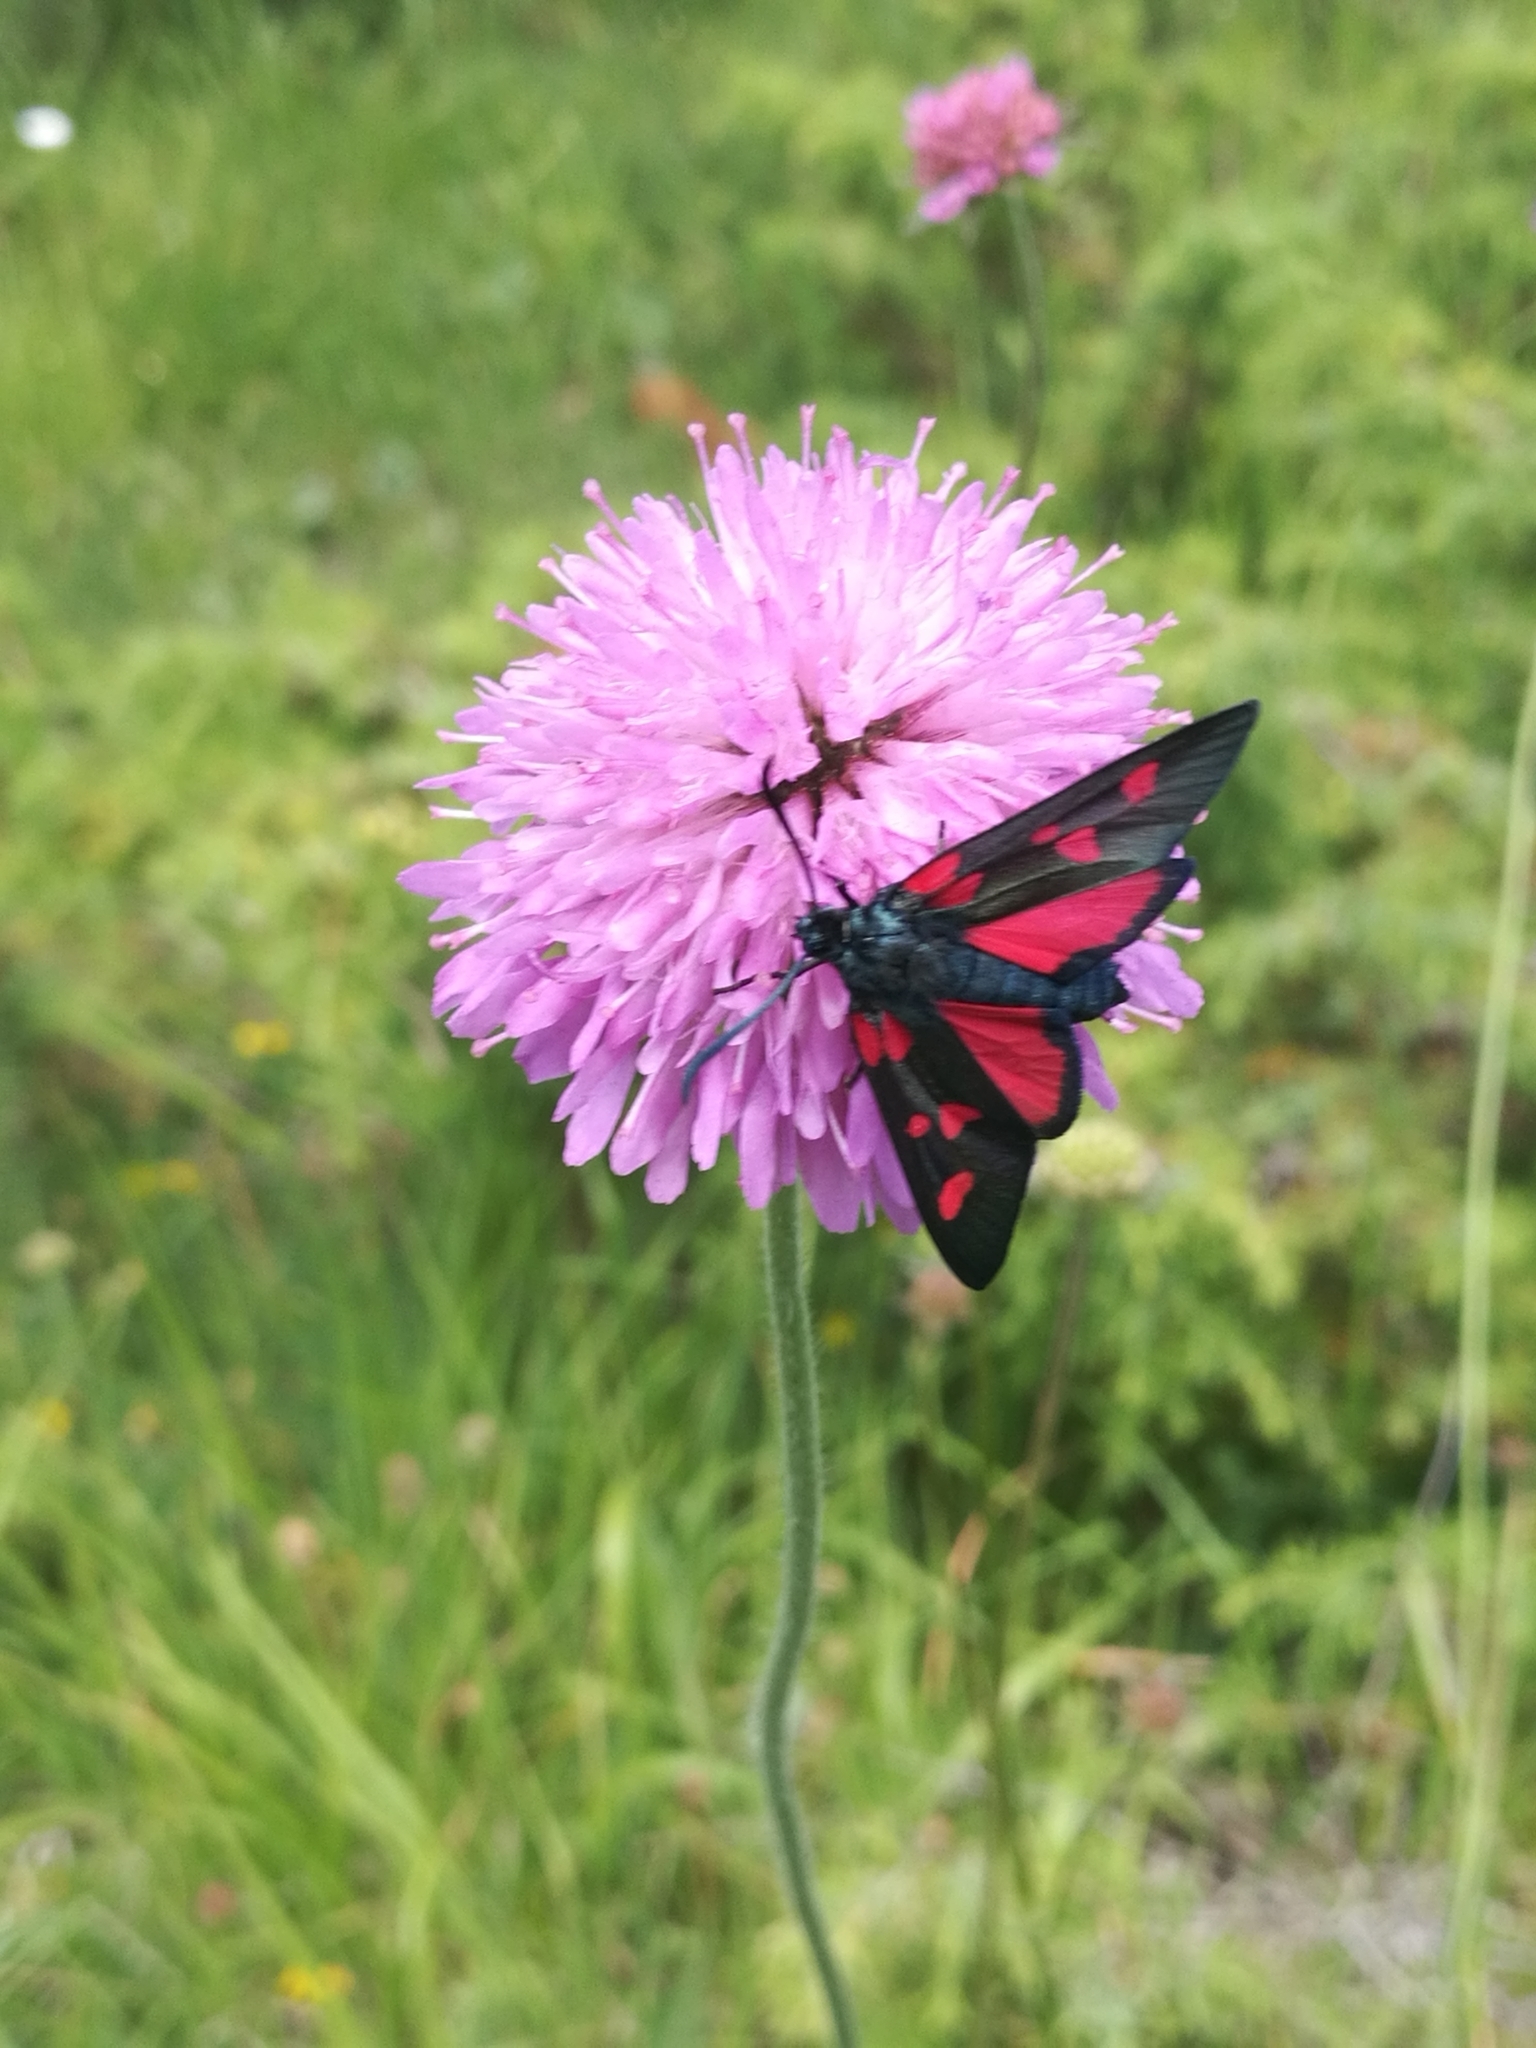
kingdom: Animalia
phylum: Arthropoda
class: Insecta
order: Lepidoptera
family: Zygaenidae
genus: Zygaena
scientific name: Zygaena lonicerae
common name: Narrow-bordered five-spot burnet
